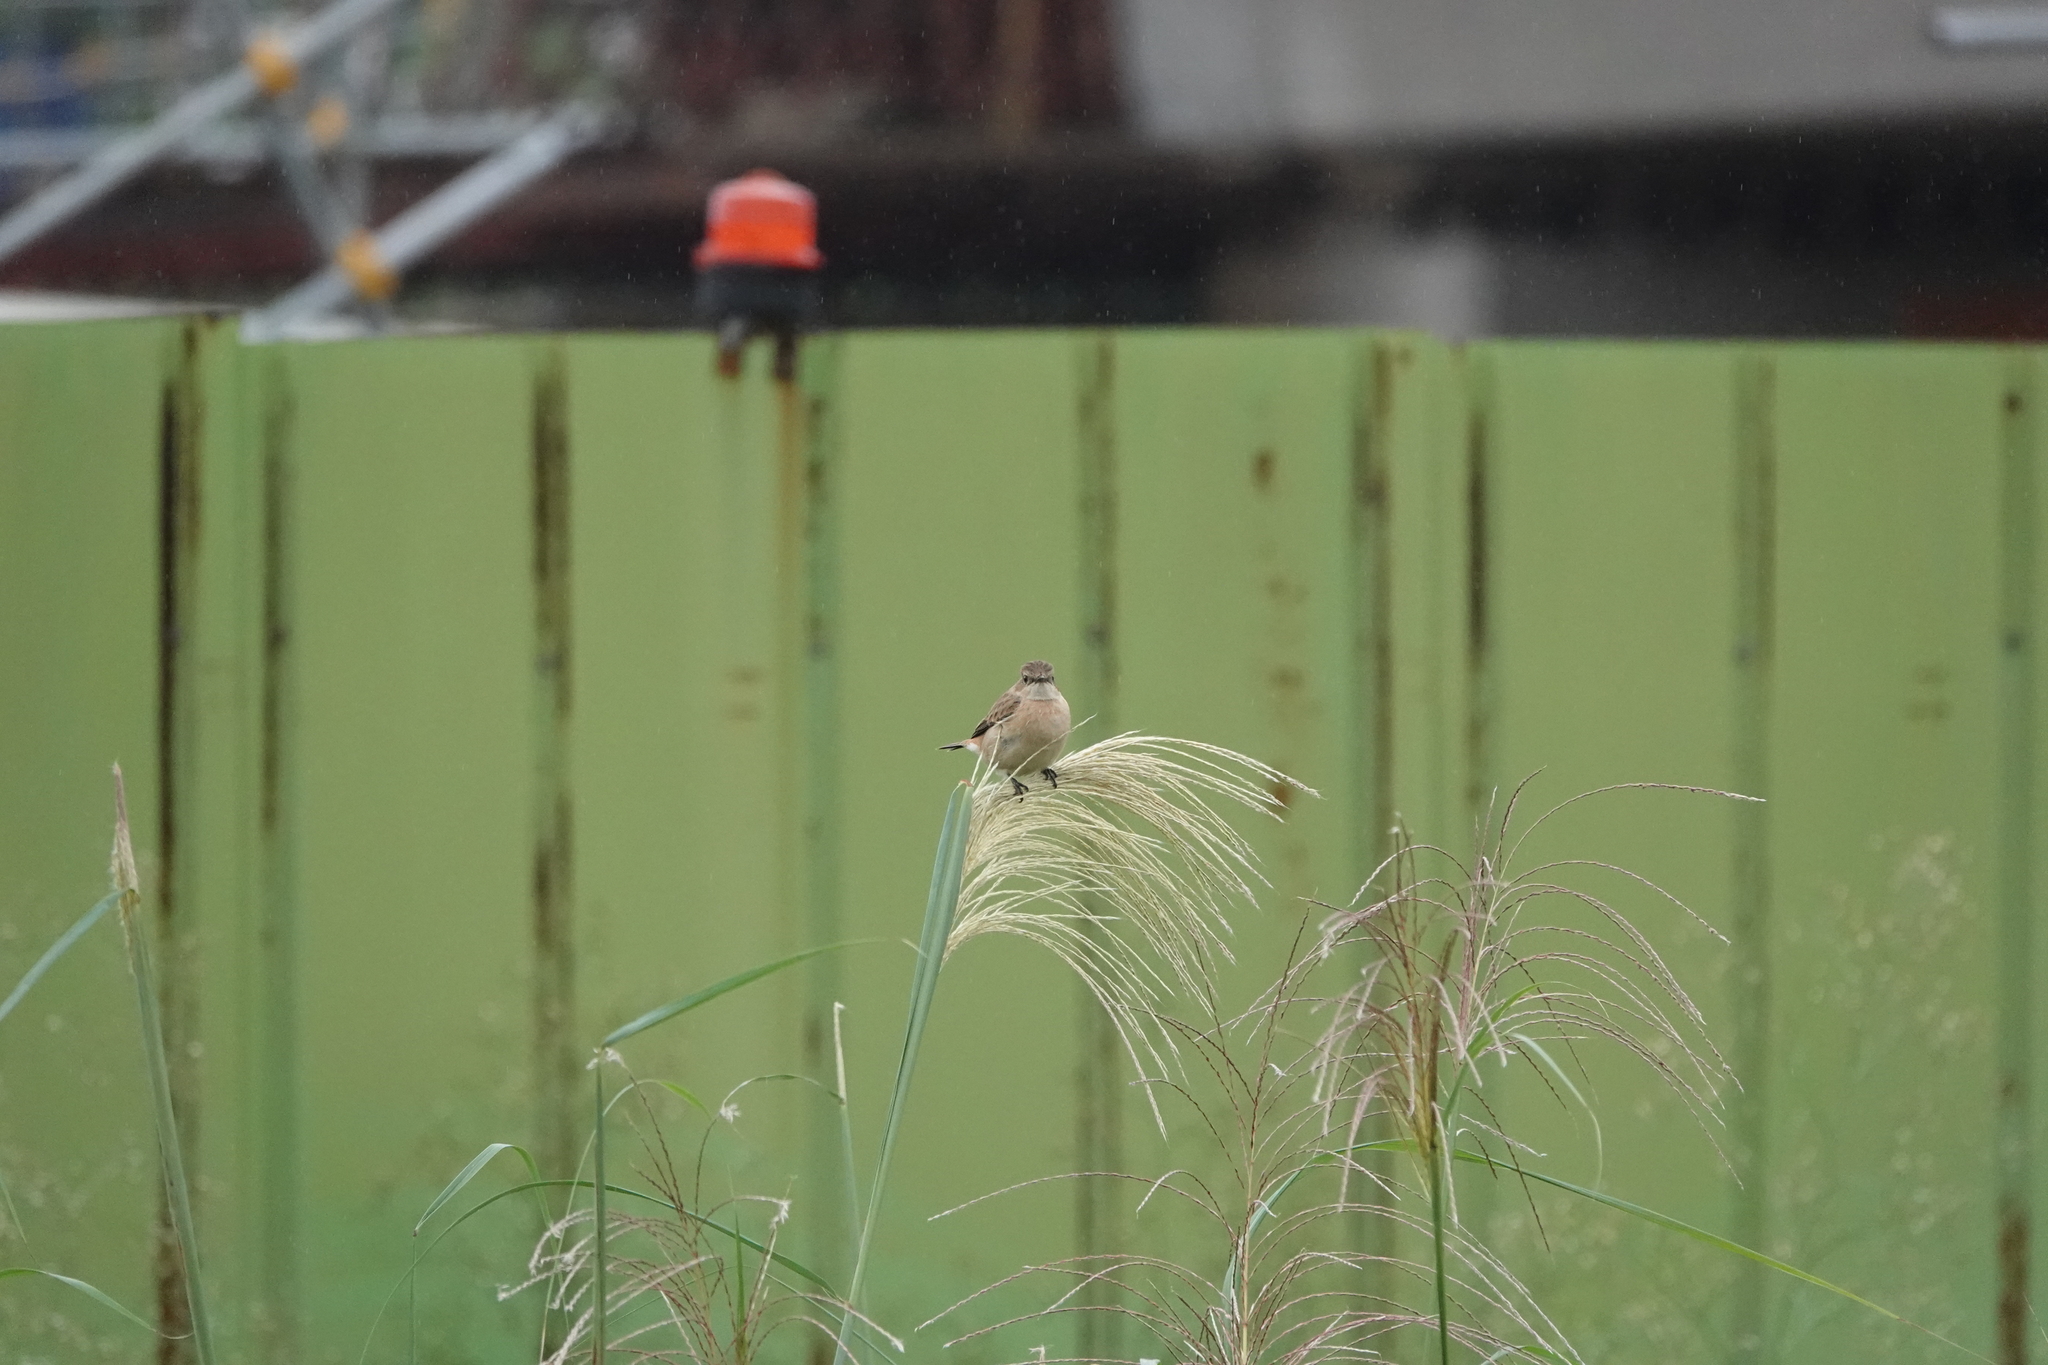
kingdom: Animalia
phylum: Chordata
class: Aves
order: Passeriformes
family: Muscicapidae
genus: Saxicola
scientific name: Saxicola stejnegeri
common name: Stejneger's stonechat
